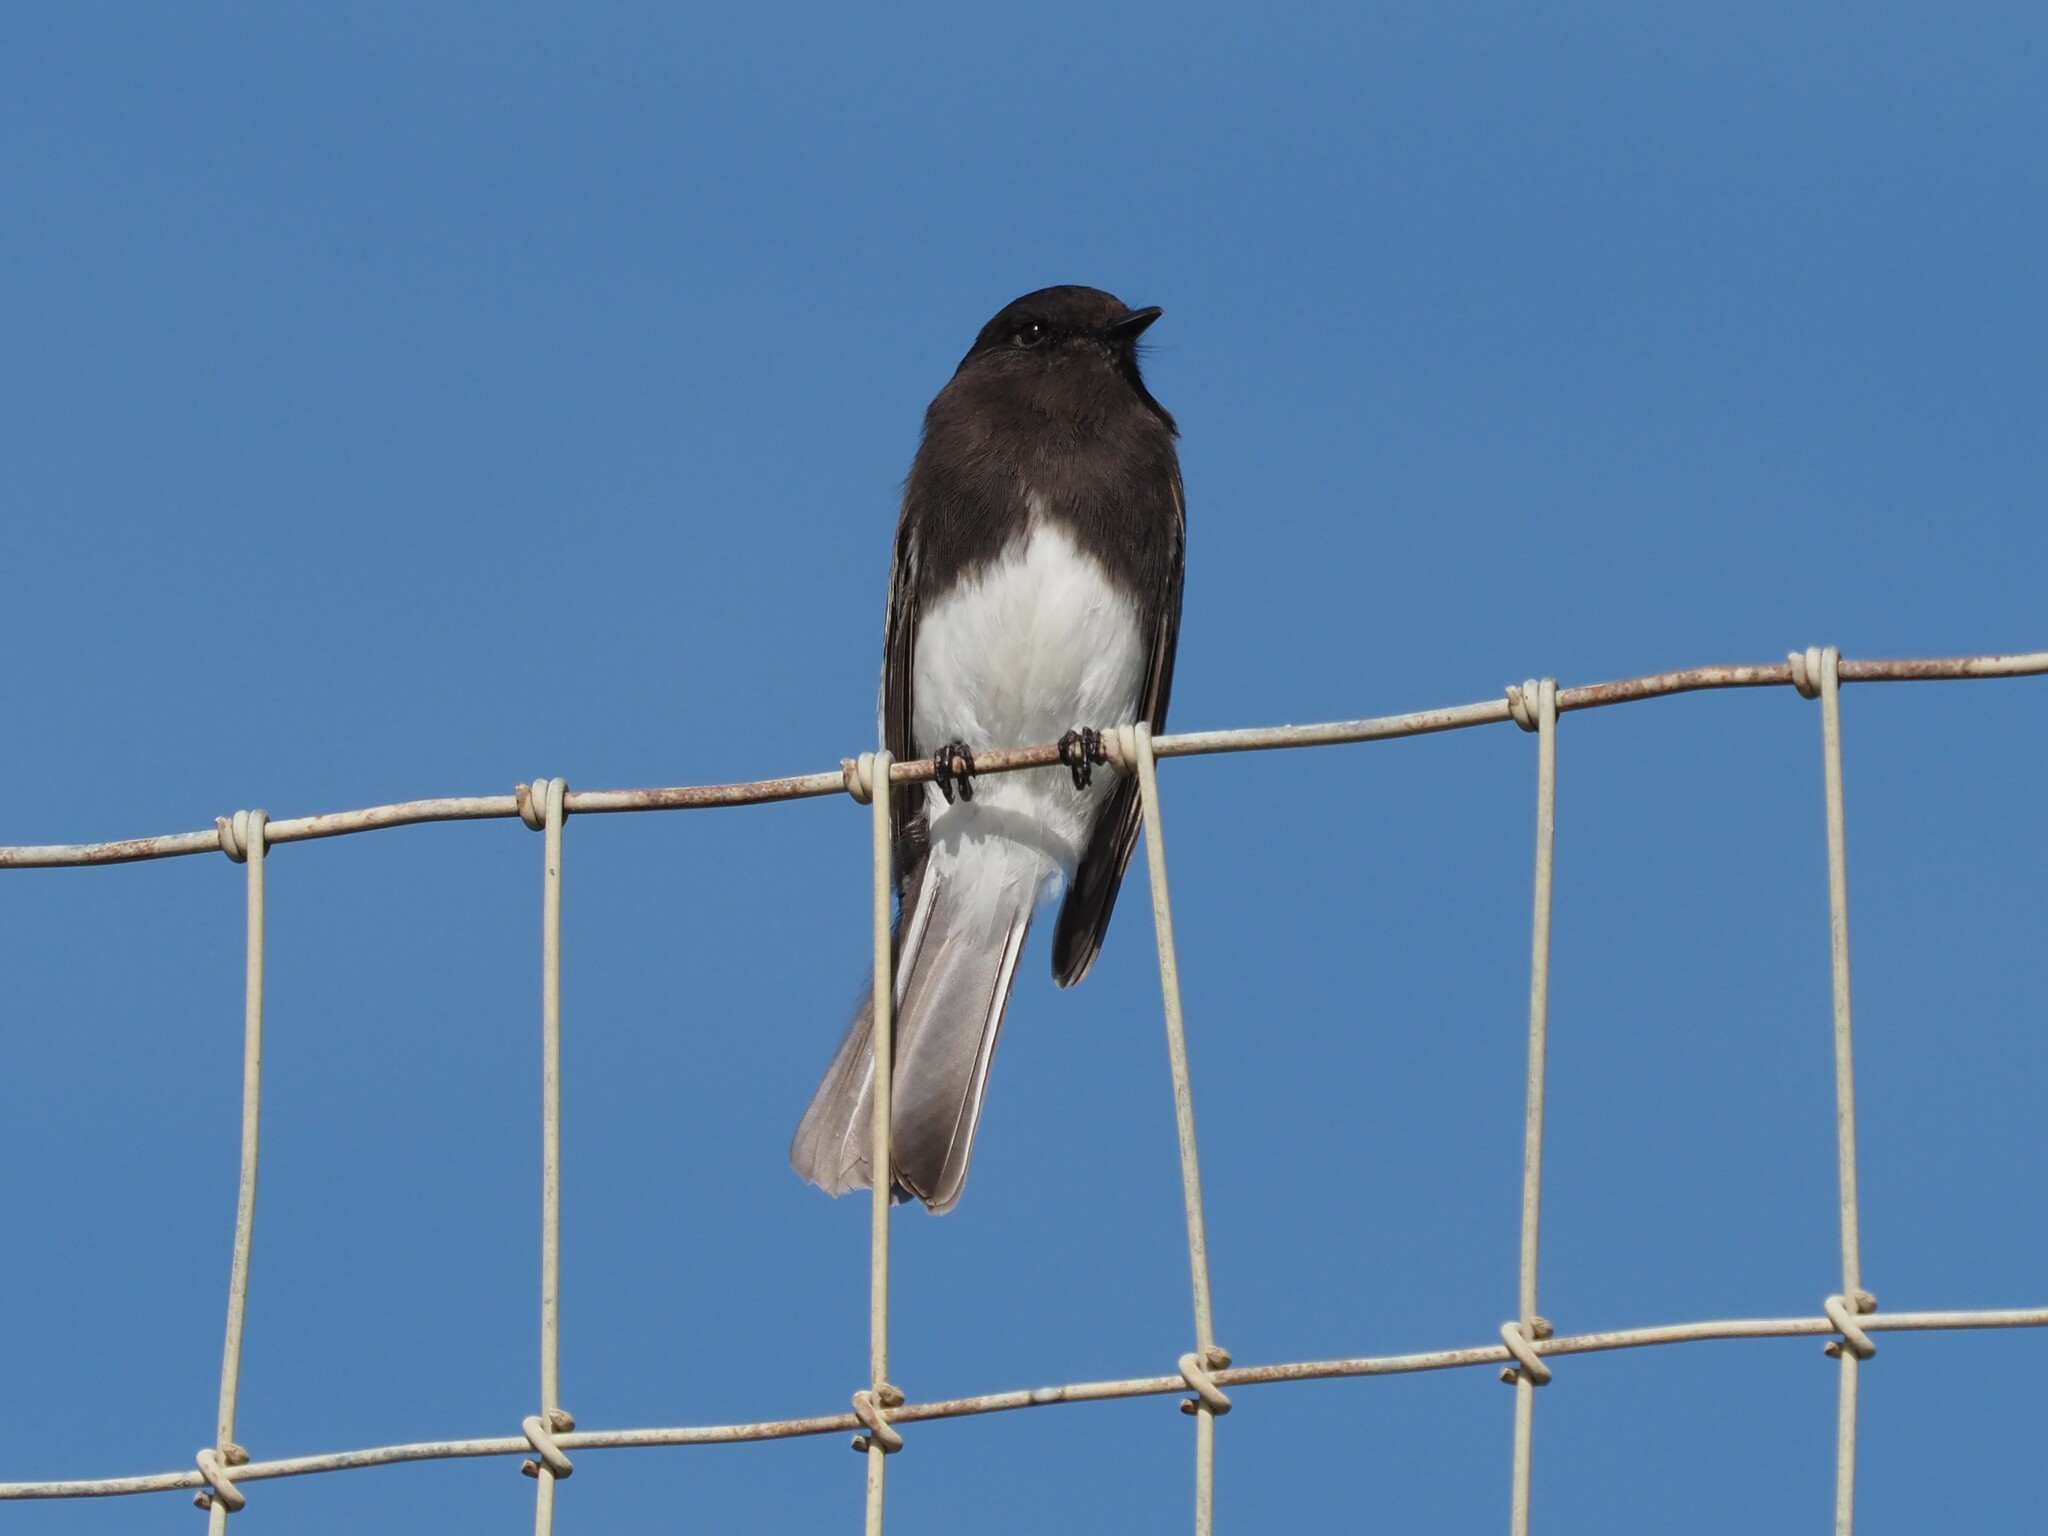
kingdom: Animalia
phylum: Chordata
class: Aves
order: Passeriformes
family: Tyrannidae
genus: Sayornis
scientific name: Sayornis nigricans
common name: Black phoebe
